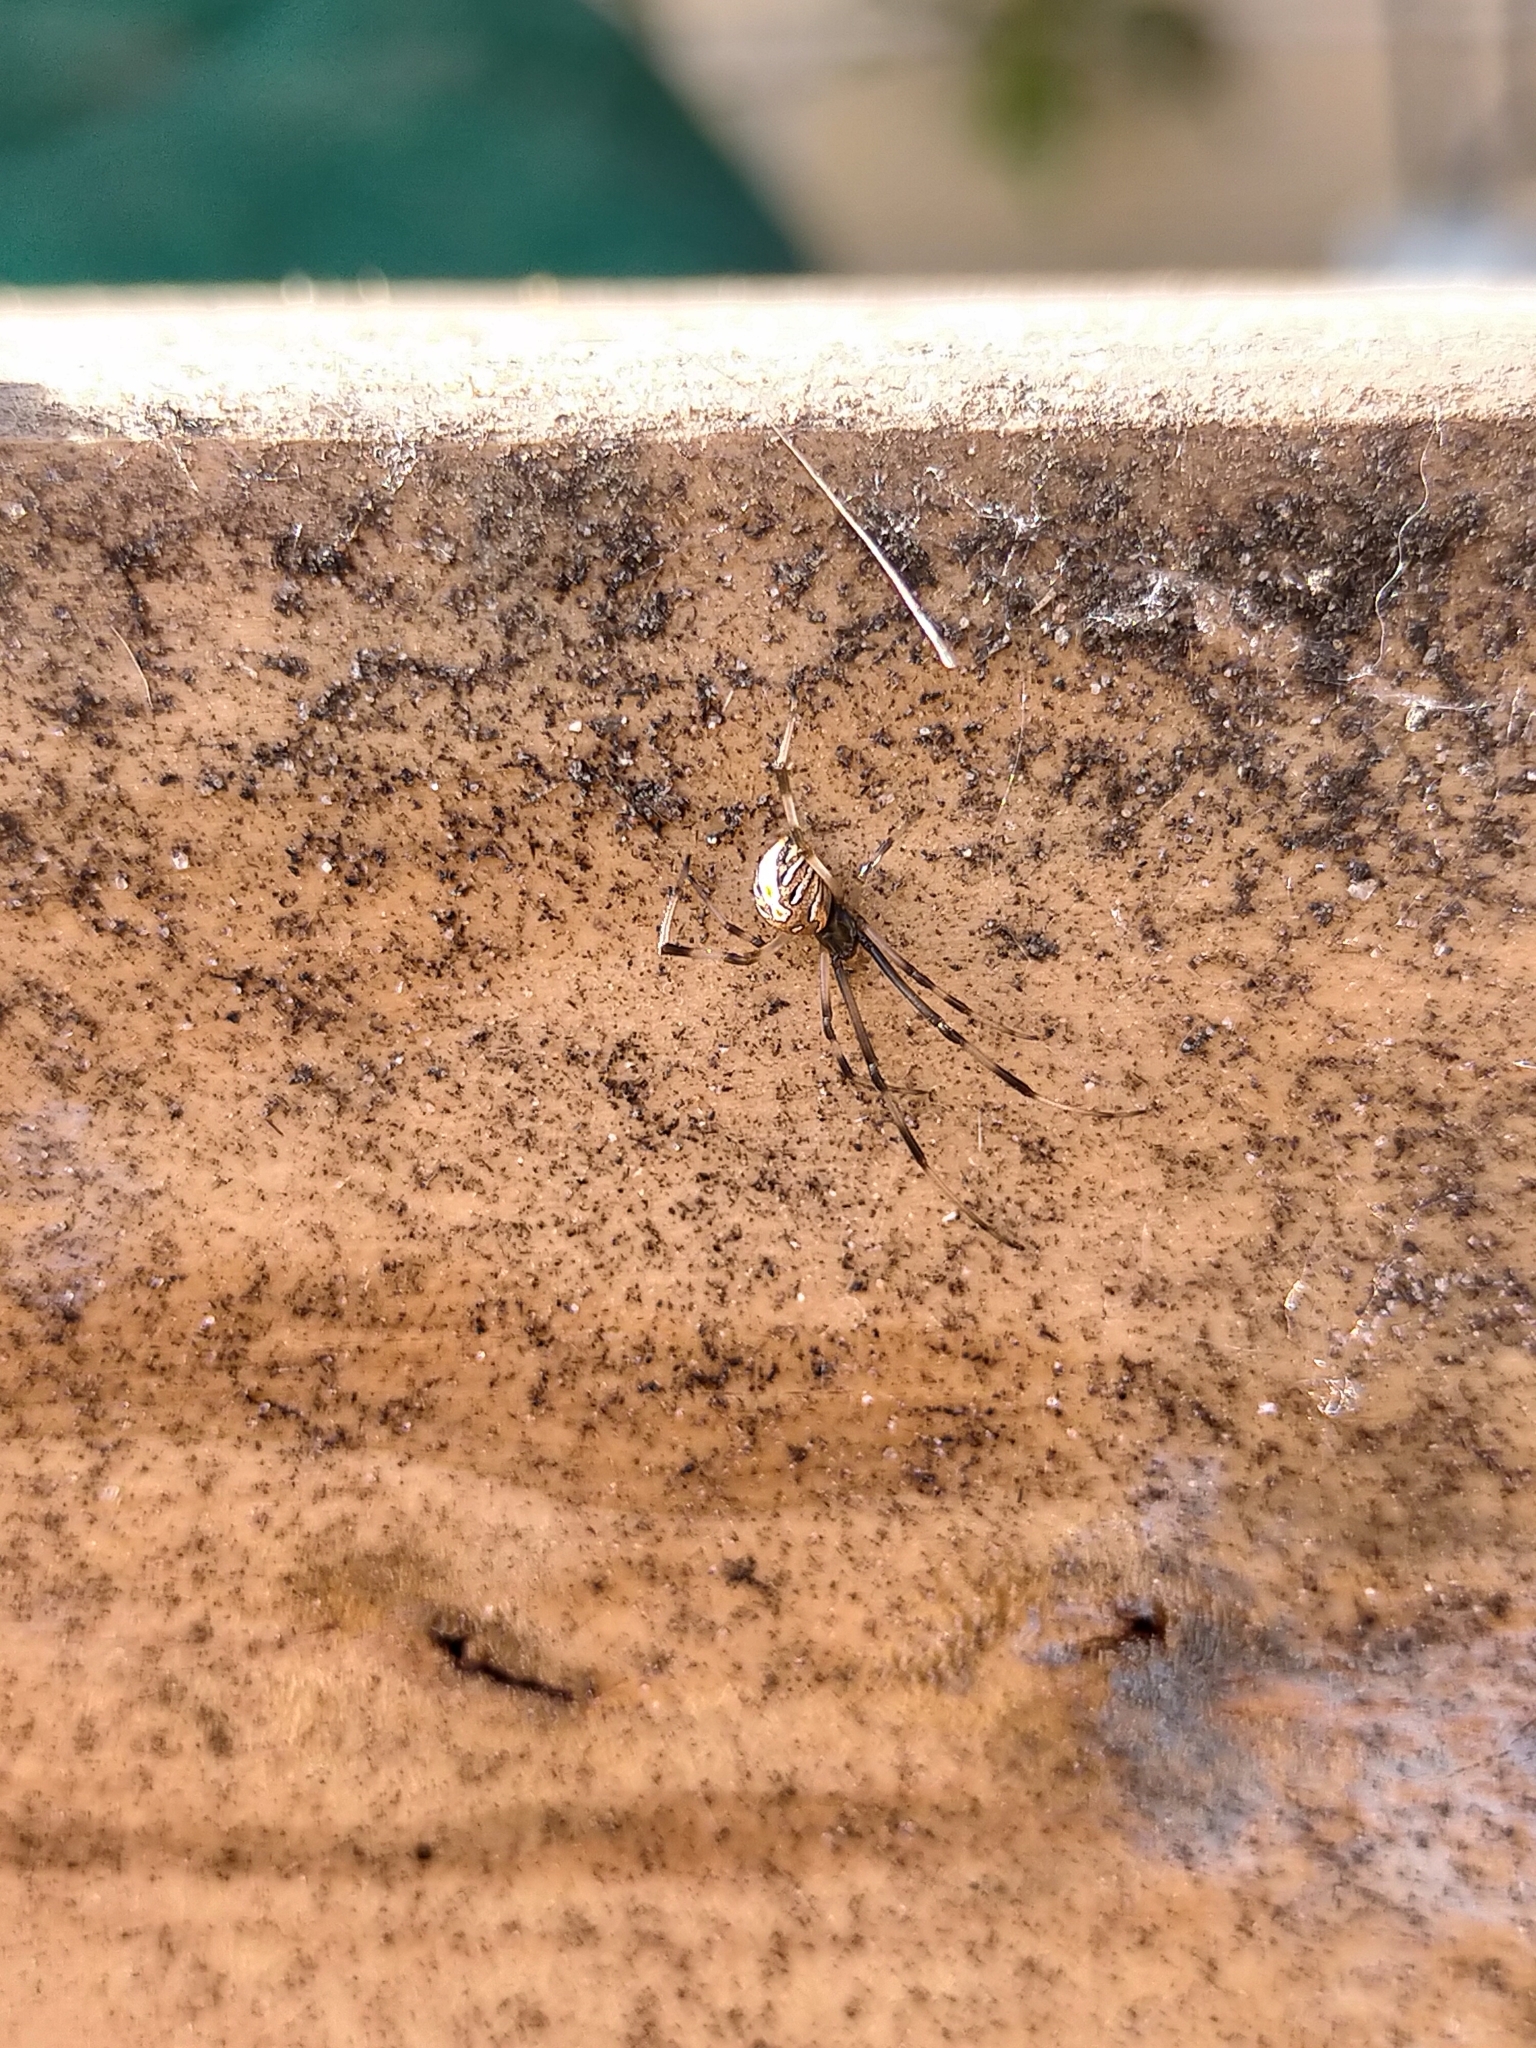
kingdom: Animalia
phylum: Arthropoda
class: Arachnida
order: Araneae
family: Theridiidae
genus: Latrodectus
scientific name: Latrodectus hasselti
